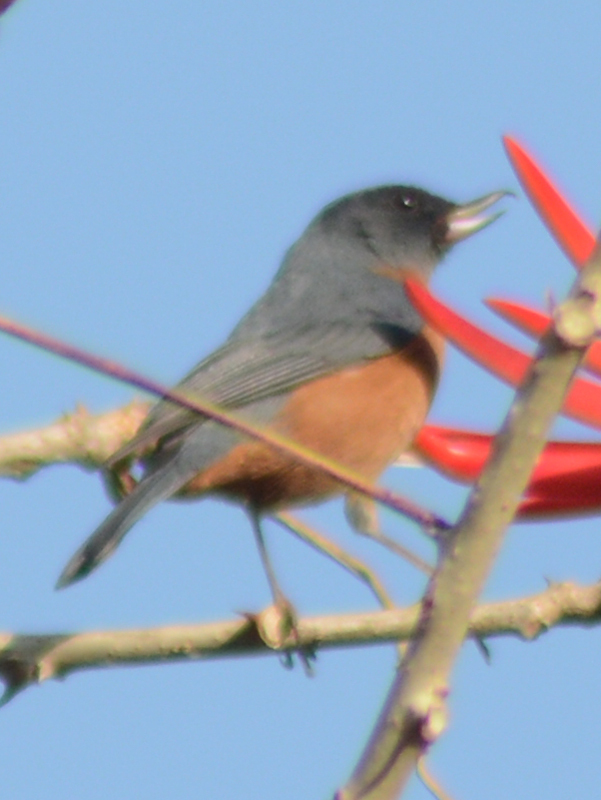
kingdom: Animalia
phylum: Chordata
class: Aves
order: Passeriformes
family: Thraupidae
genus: Diglossa
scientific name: Diglossa baritula
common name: Cinnamon-bellied flowerpiercer
